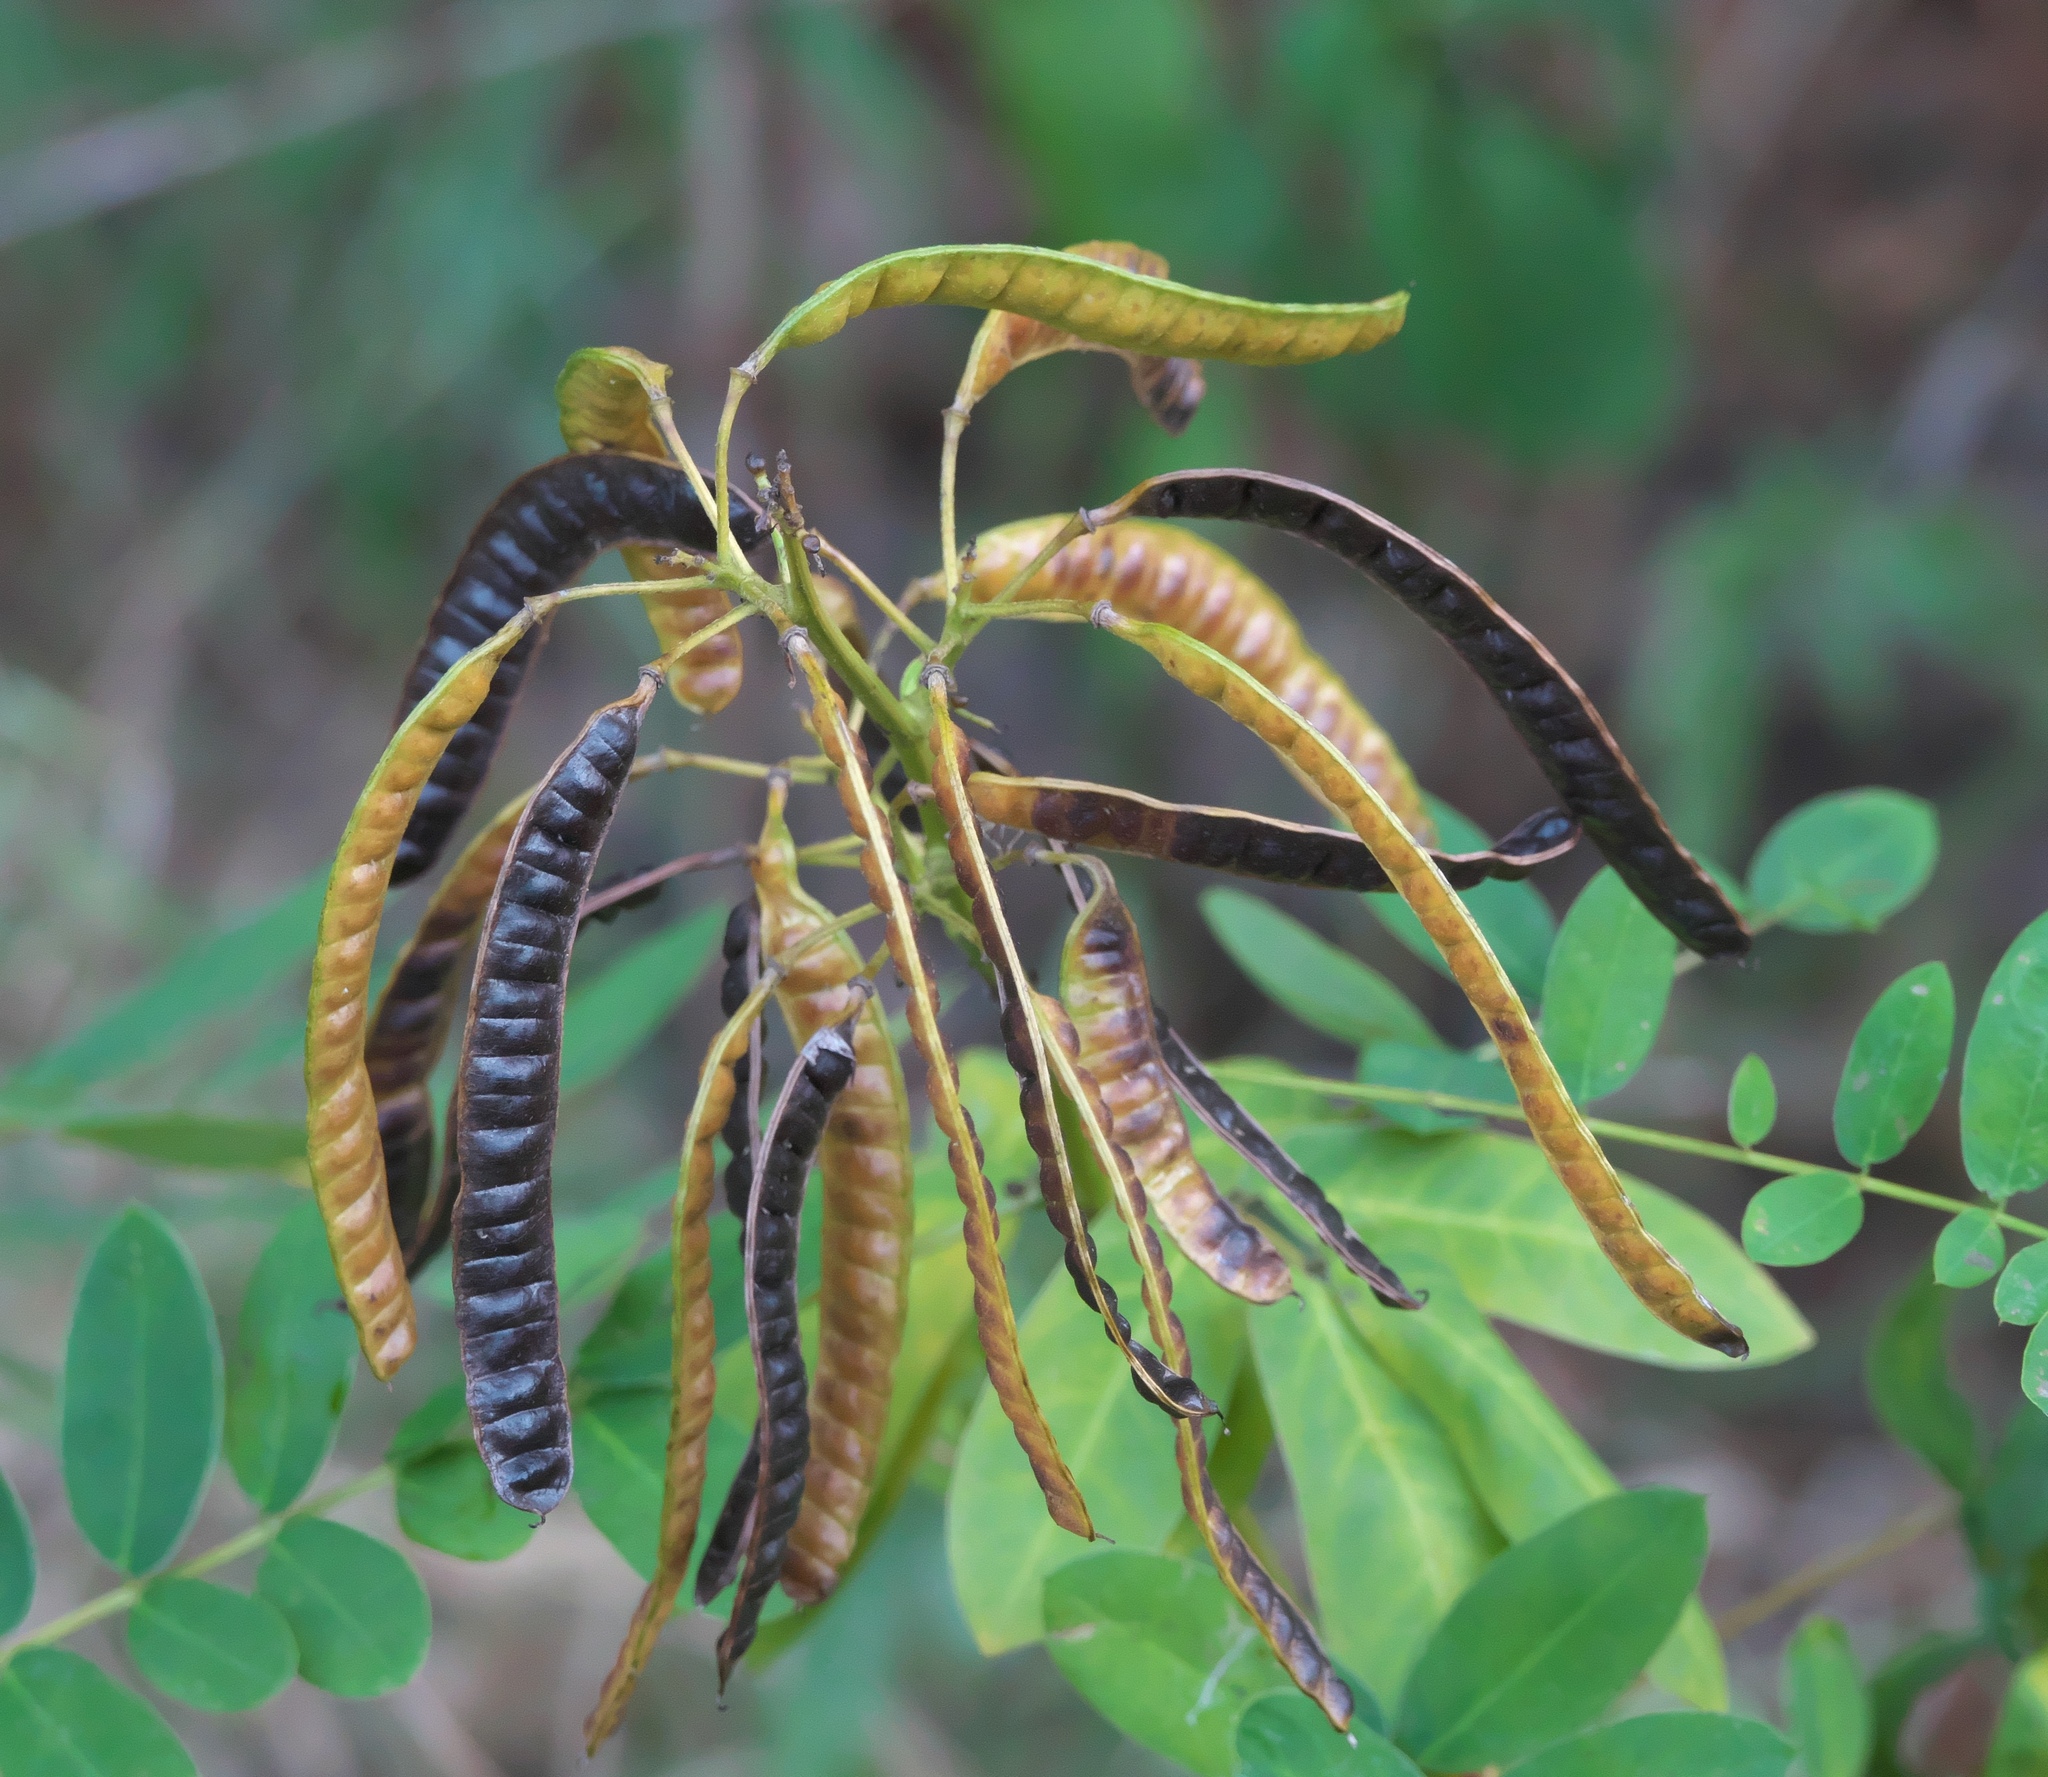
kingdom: Plantae
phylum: Tracheophyta
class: Magnoliopsida
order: Fabales
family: Fabaceae
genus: Senna
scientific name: Senna marilandica
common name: American senna
